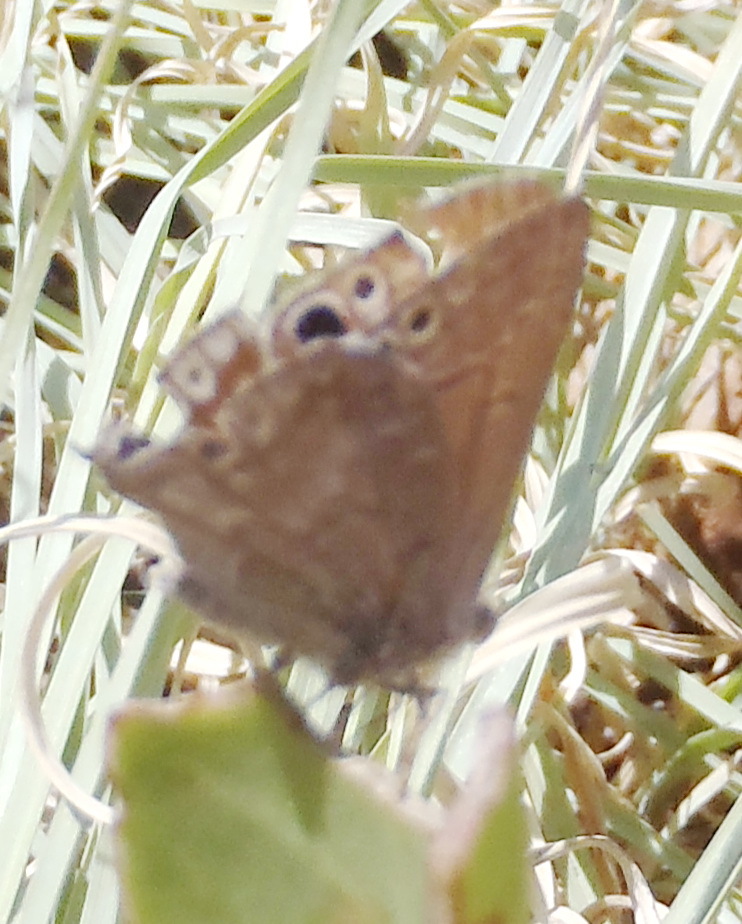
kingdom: Animalia
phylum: Arthropoda
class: Insecta
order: Lepidoptera
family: Lycaenidae
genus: Leptomyrina
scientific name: Leptomyrina henningi
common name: Henning's black-eye
